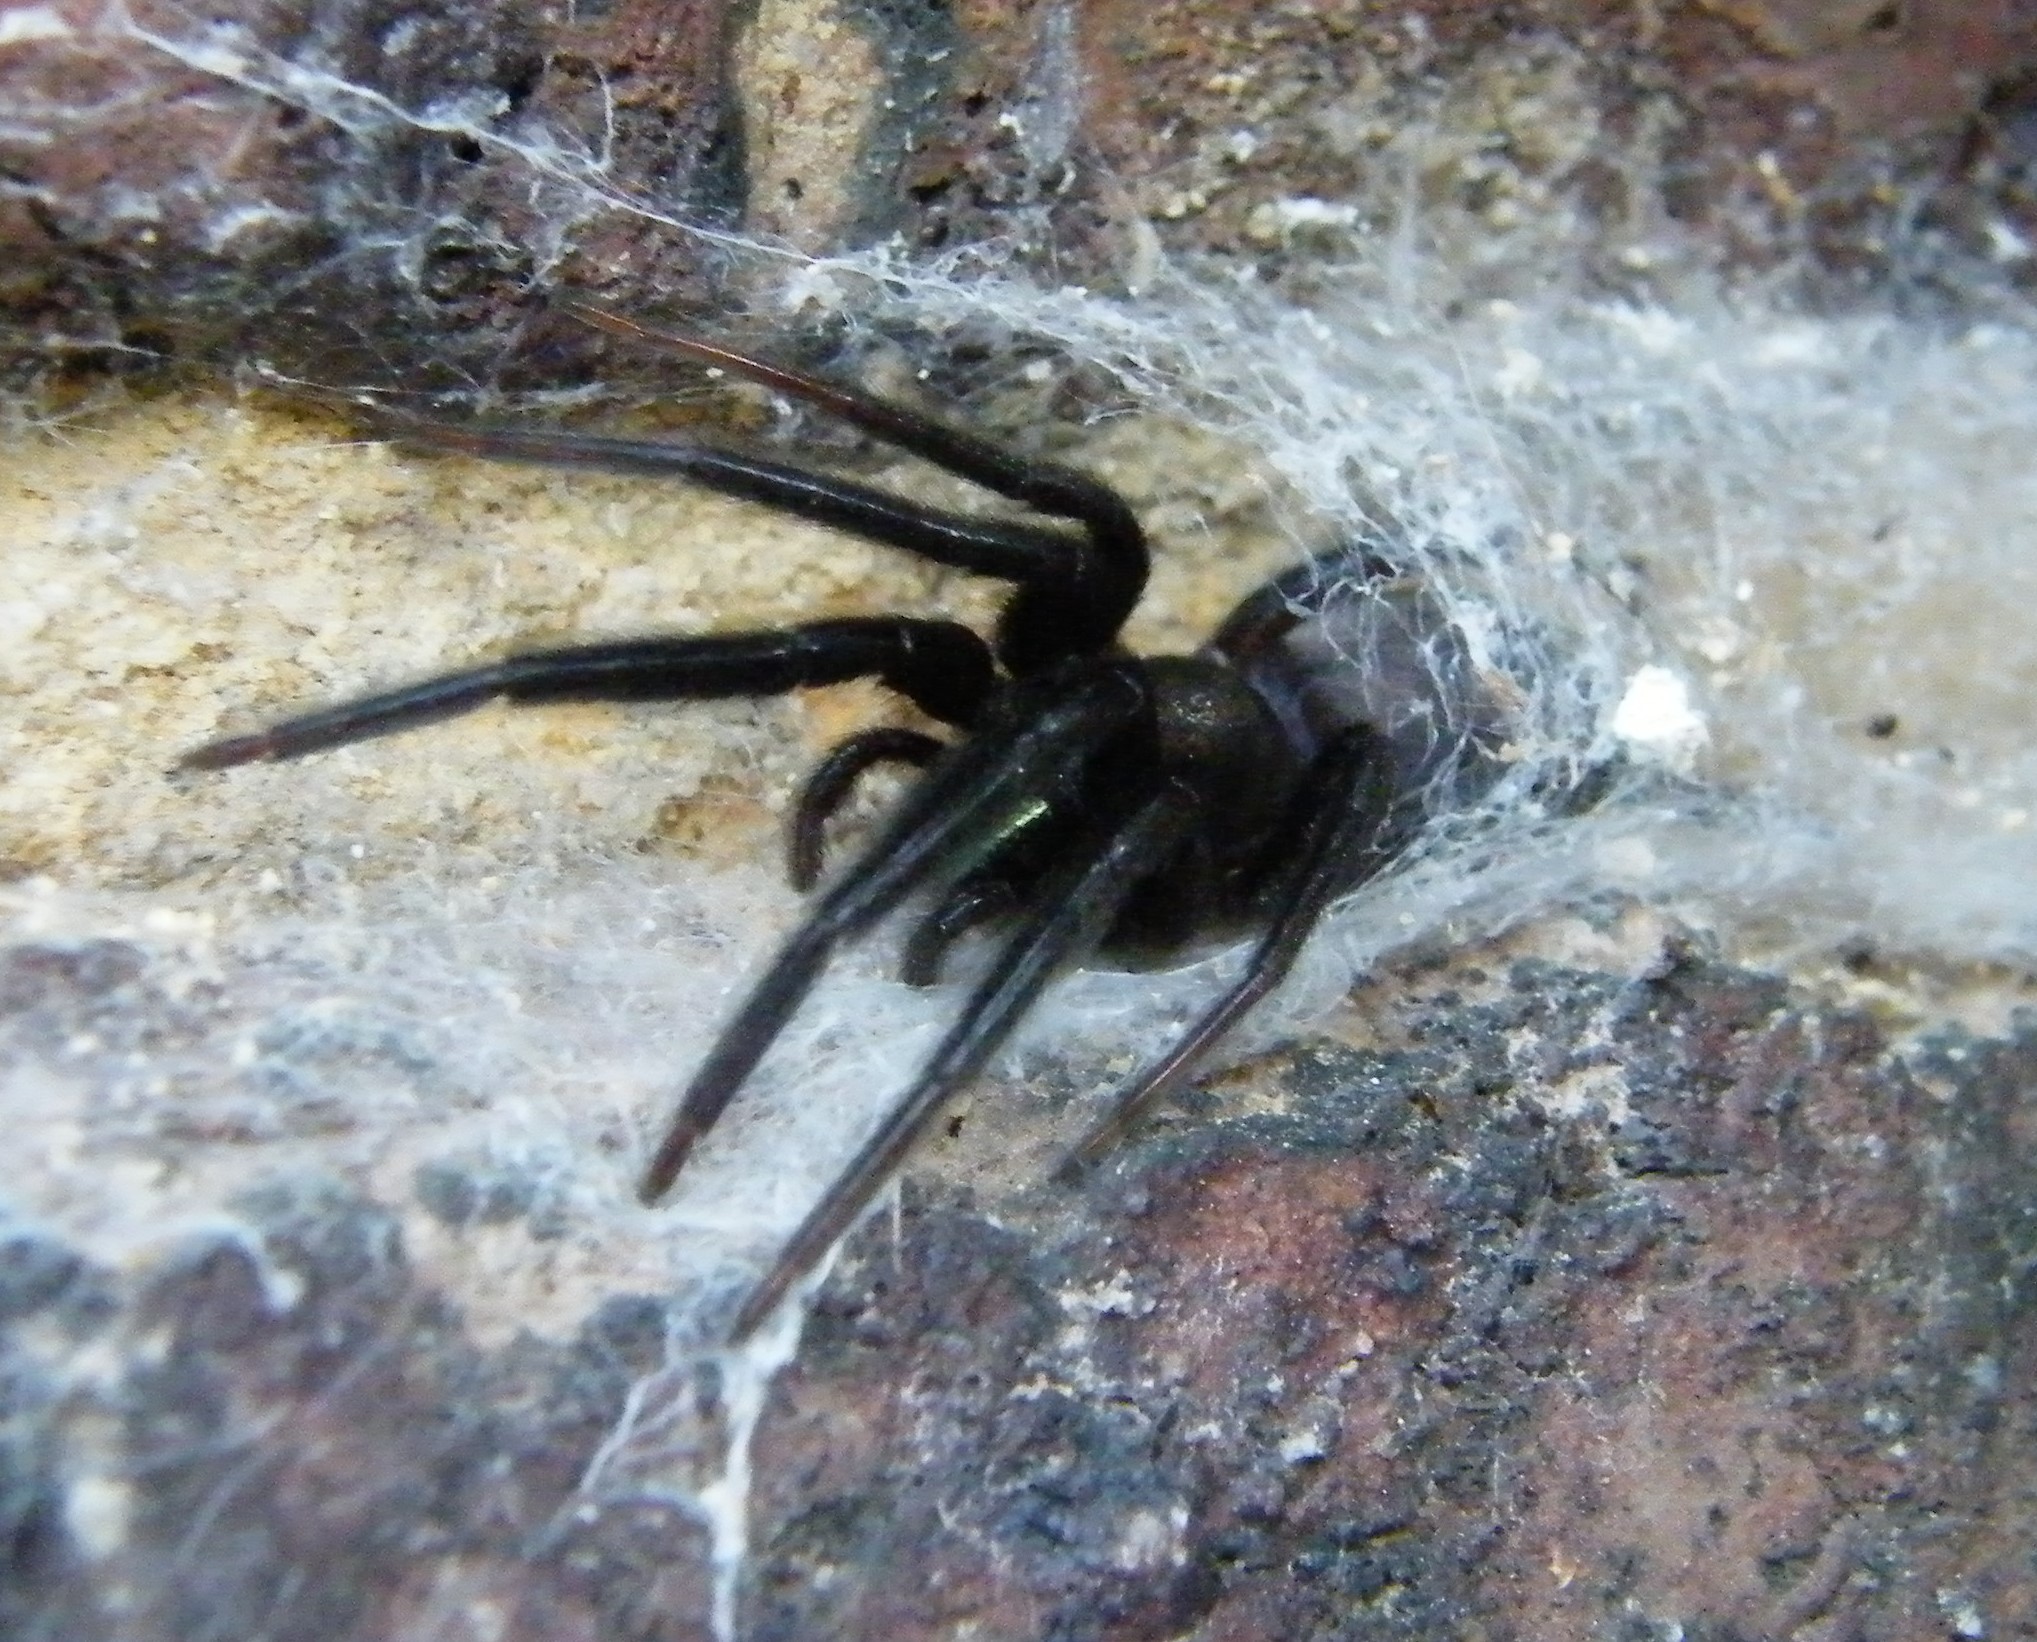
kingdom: Animalia
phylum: Arthropoda
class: Arachnida
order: Araneae
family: Segestriidae
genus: Segestria
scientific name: Segestria florentina
